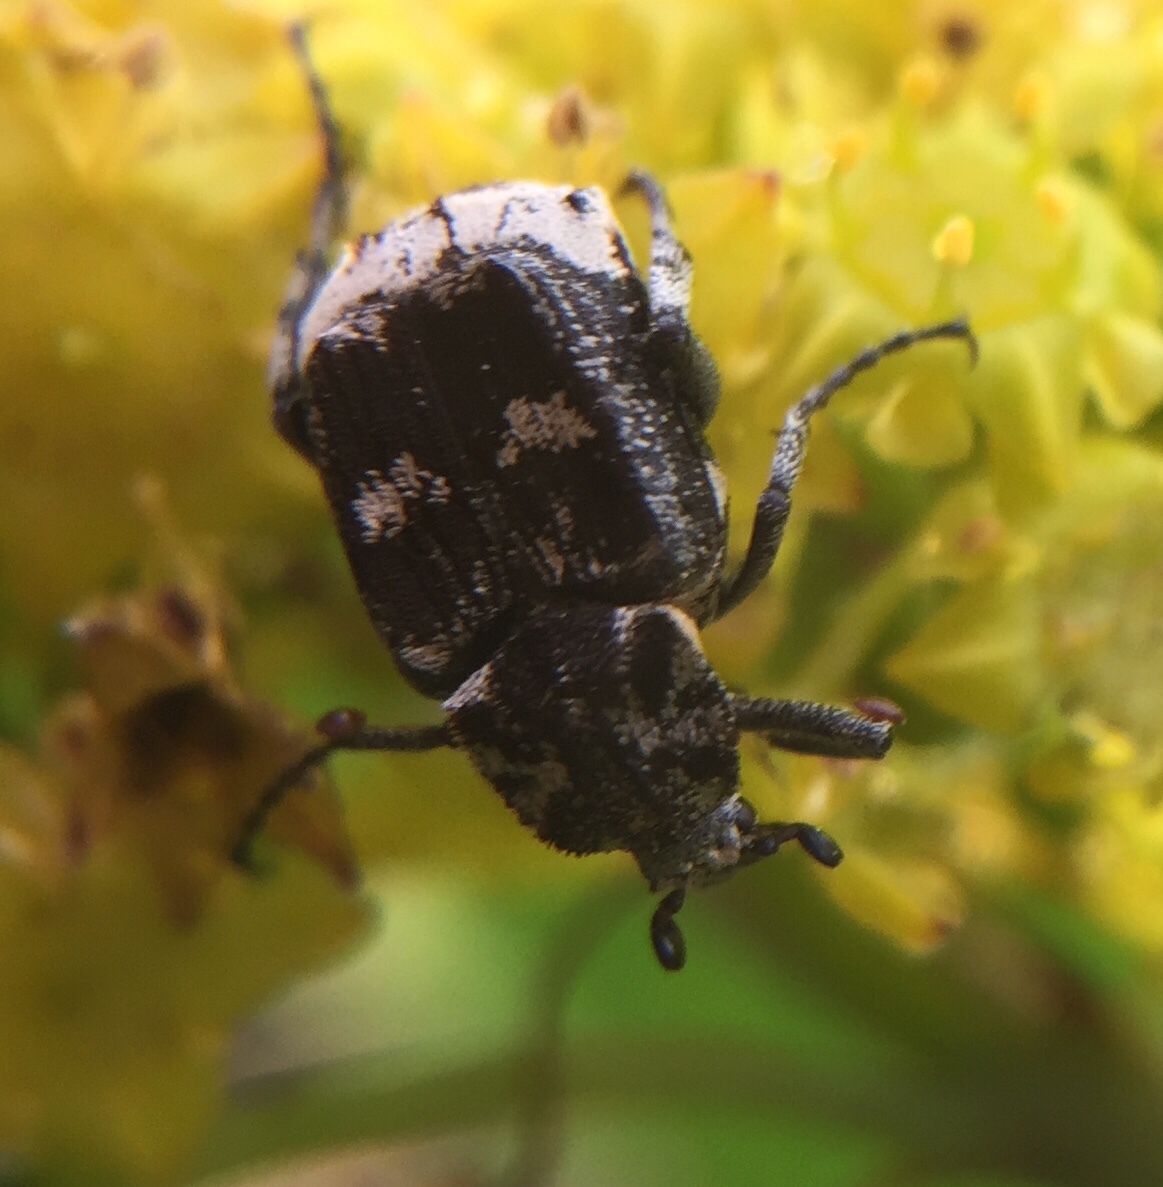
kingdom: Animalia
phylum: Arthropoda
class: Insecta
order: Coleoptera
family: Scarabaeidae
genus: Valgus
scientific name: Valgus hemipterus
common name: Bug flower chafer
